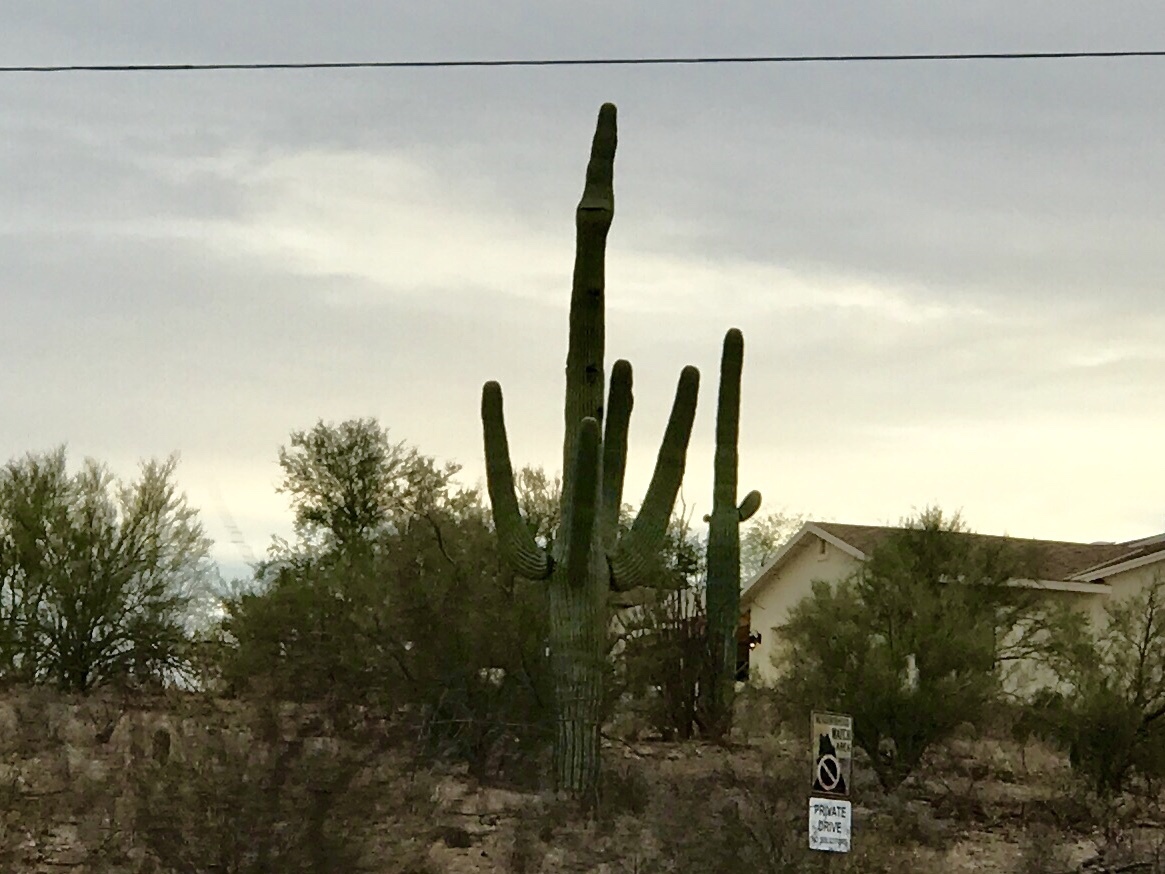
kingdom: Plantae
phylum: Tracheophyta
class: Magnoliopsida
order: Caryophyllales
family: Cactaceae
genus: Carnegiea
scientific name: Carnegiea gigantea
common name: Saguaro
